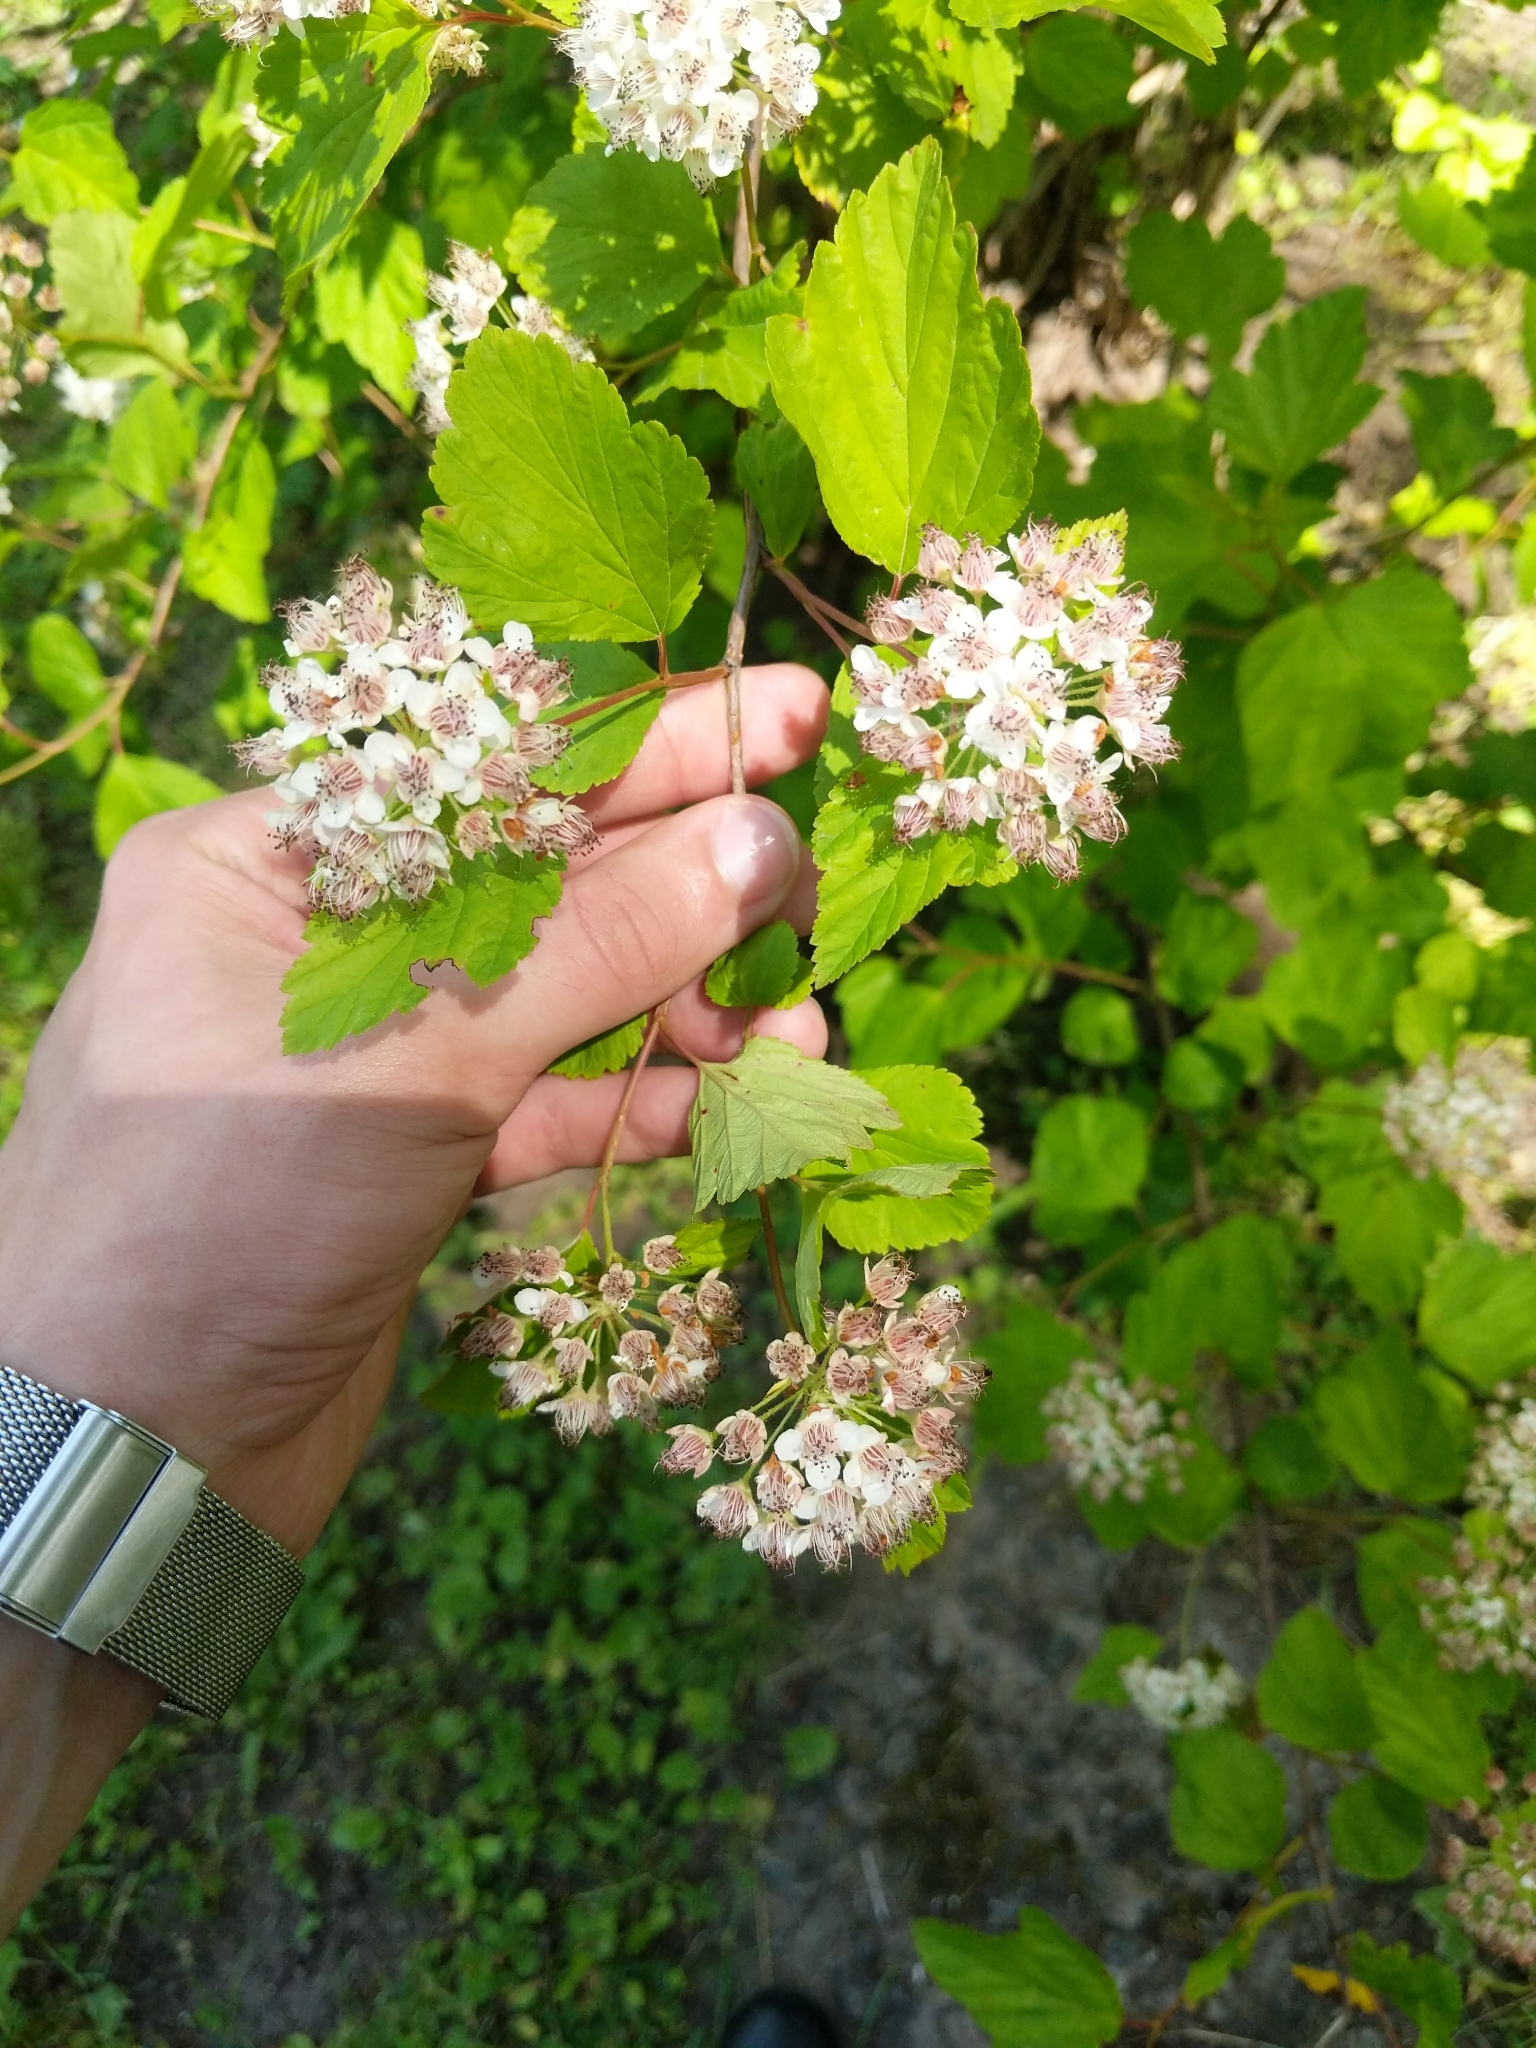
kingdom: Plantae
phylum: Tracheophyta
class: Magnoliopsida
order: Rosales
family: Rosaceae
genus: Physocarpus
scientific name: Physocarpus opulifolius
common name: Ninebark
